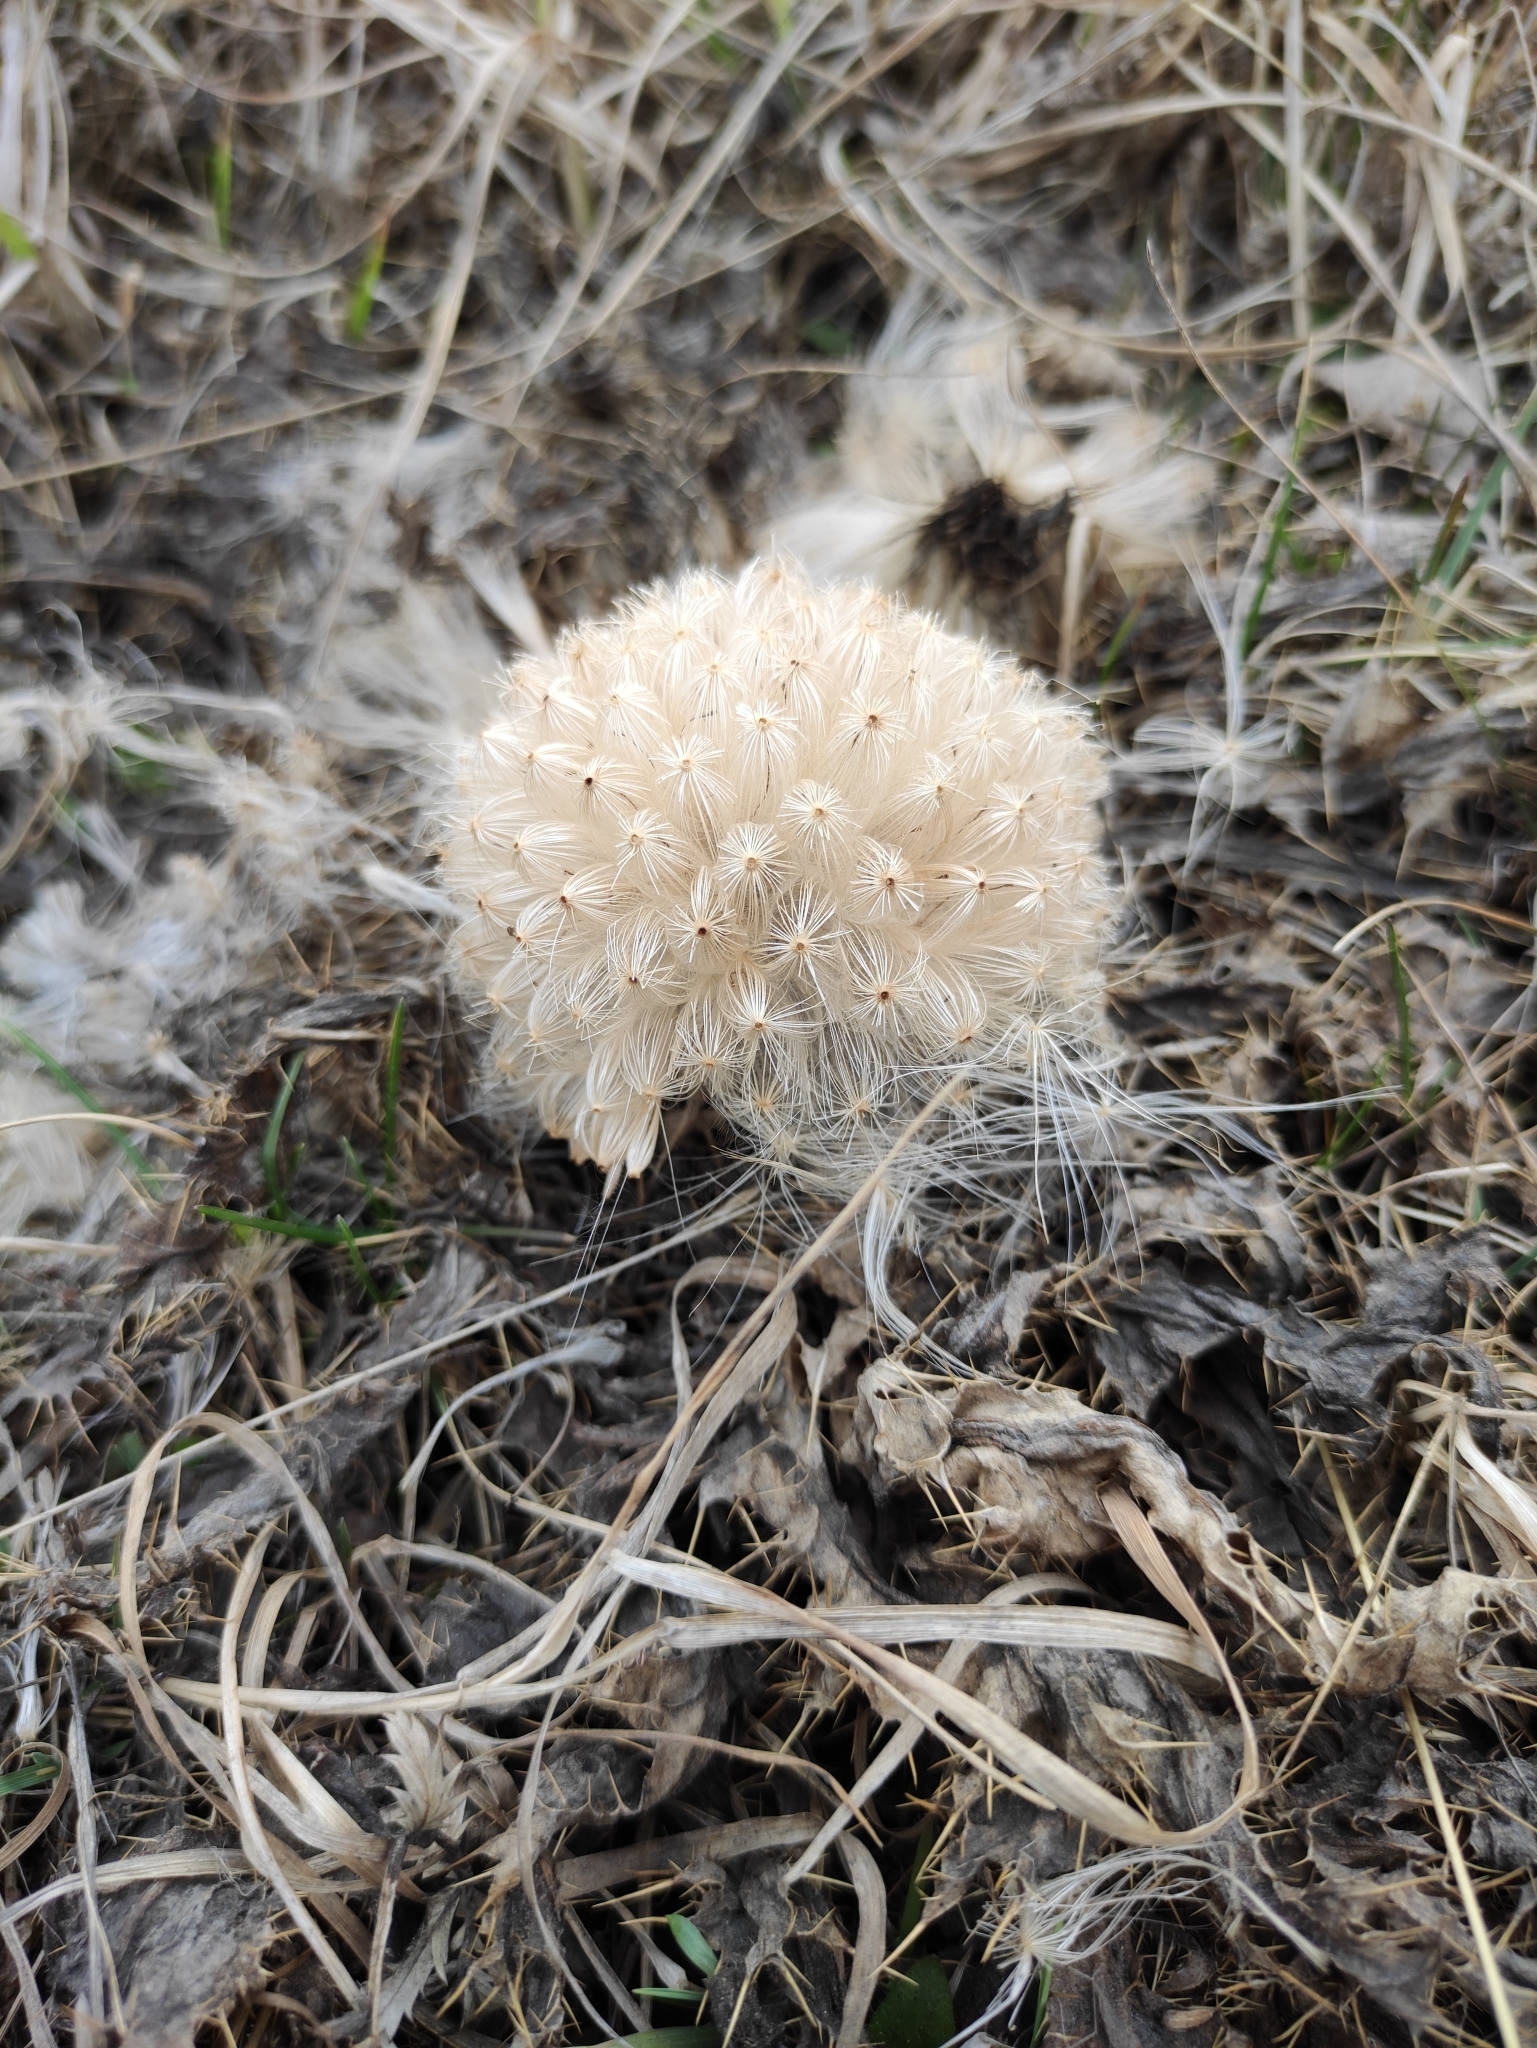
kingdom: Plantae
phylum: Tracheophyta
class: Magnoliopsida
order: Asterales
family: Asteraceae
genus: Cirsium
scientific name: Cirsium esculentum
